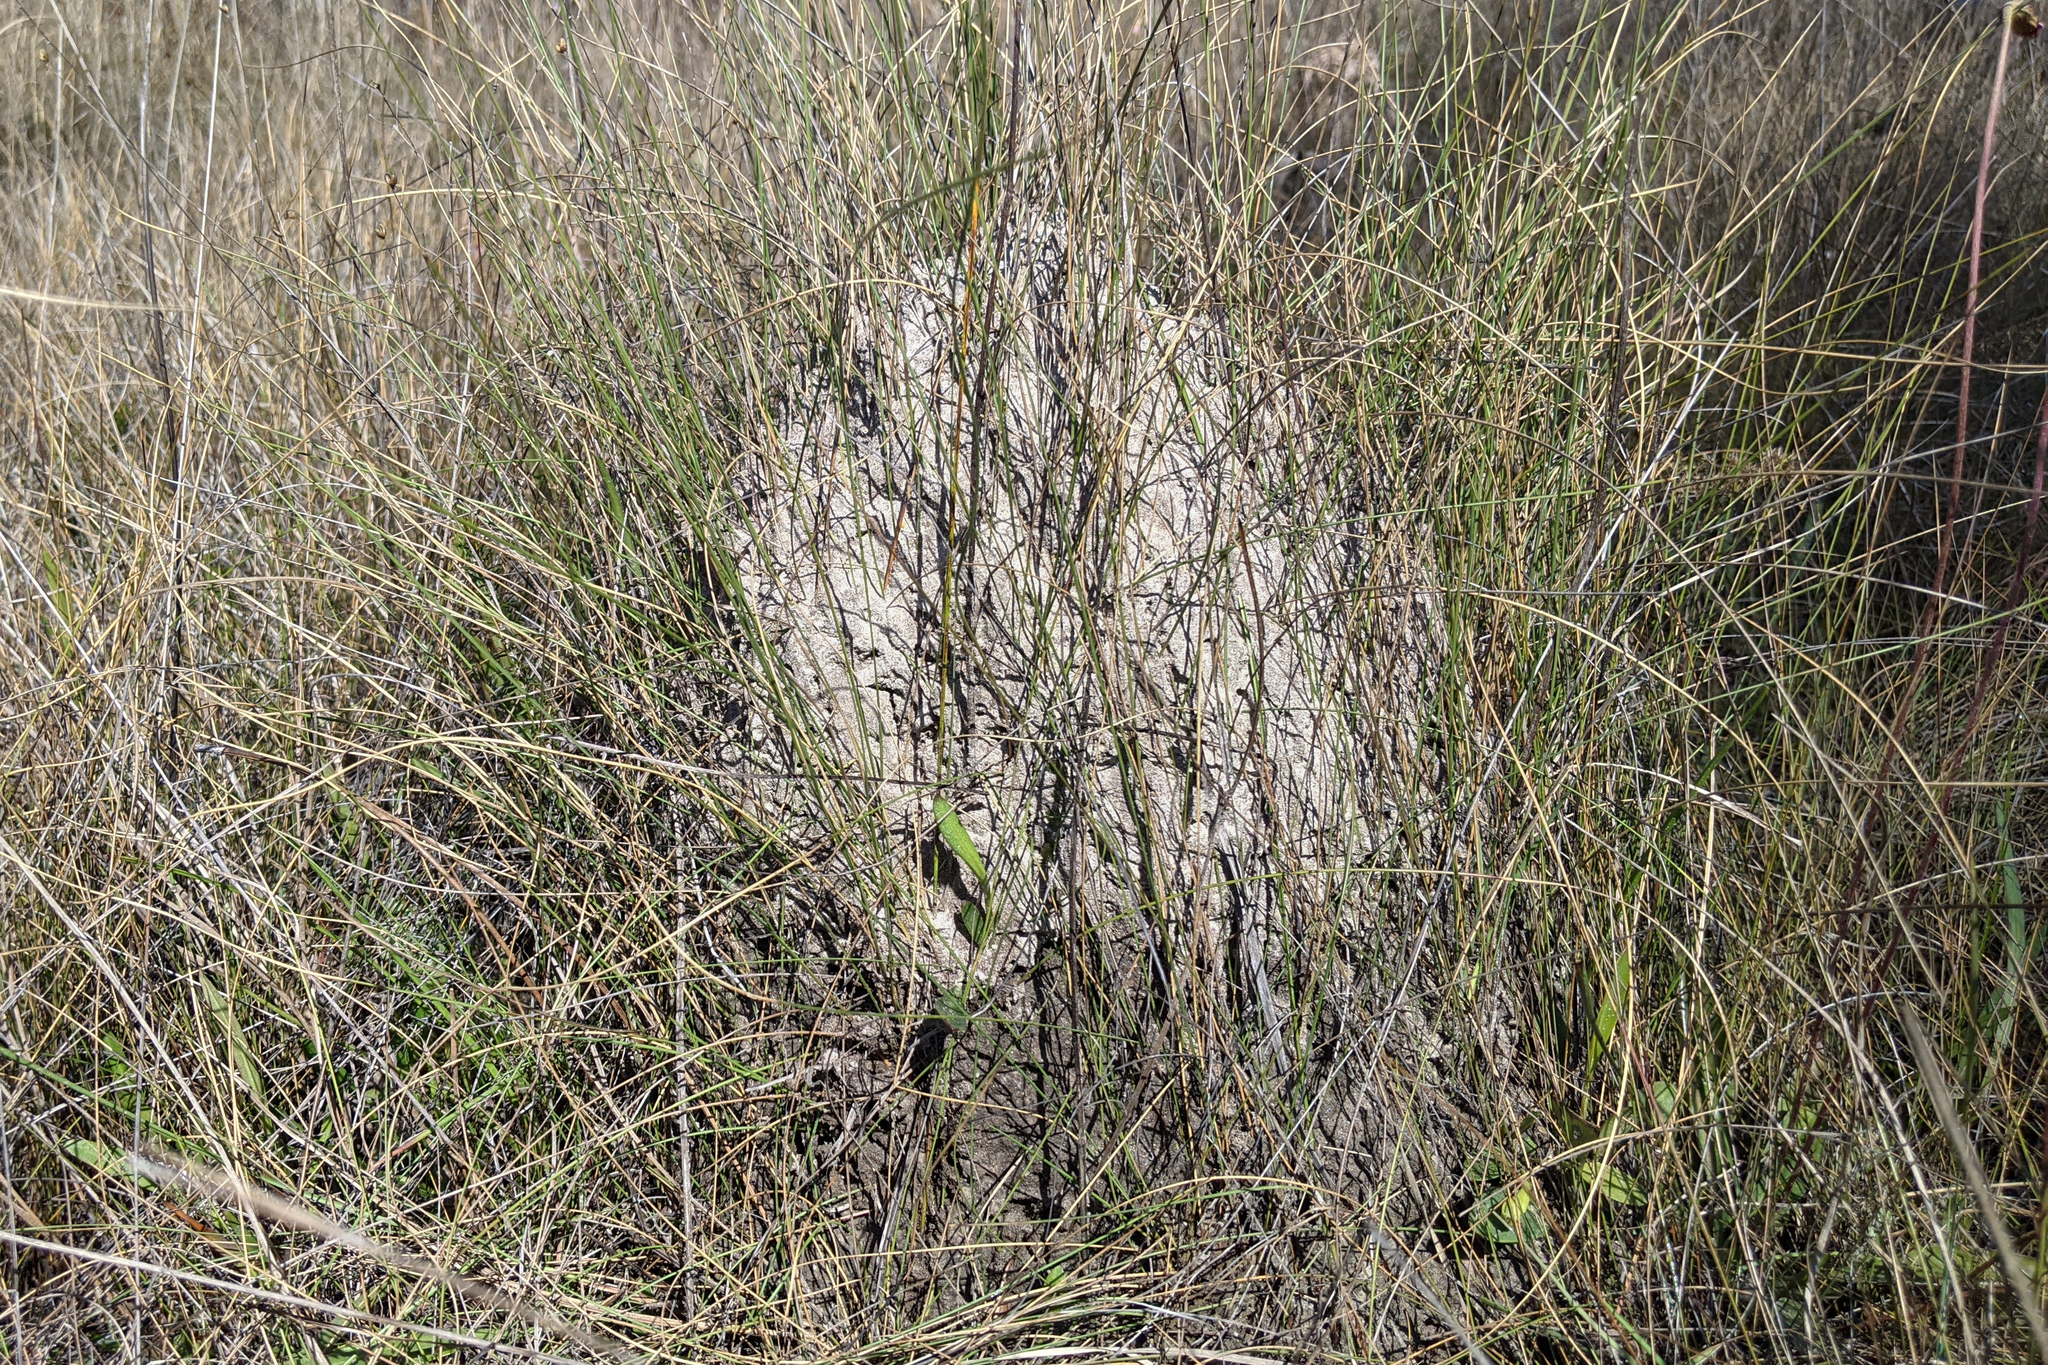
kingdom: Animalia
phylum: Arthropoda
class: Insecta
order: Hymenoptera
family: Formicidae
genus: Solenopsis
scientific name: Solenopsis invicta
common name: Red imported fire ant
